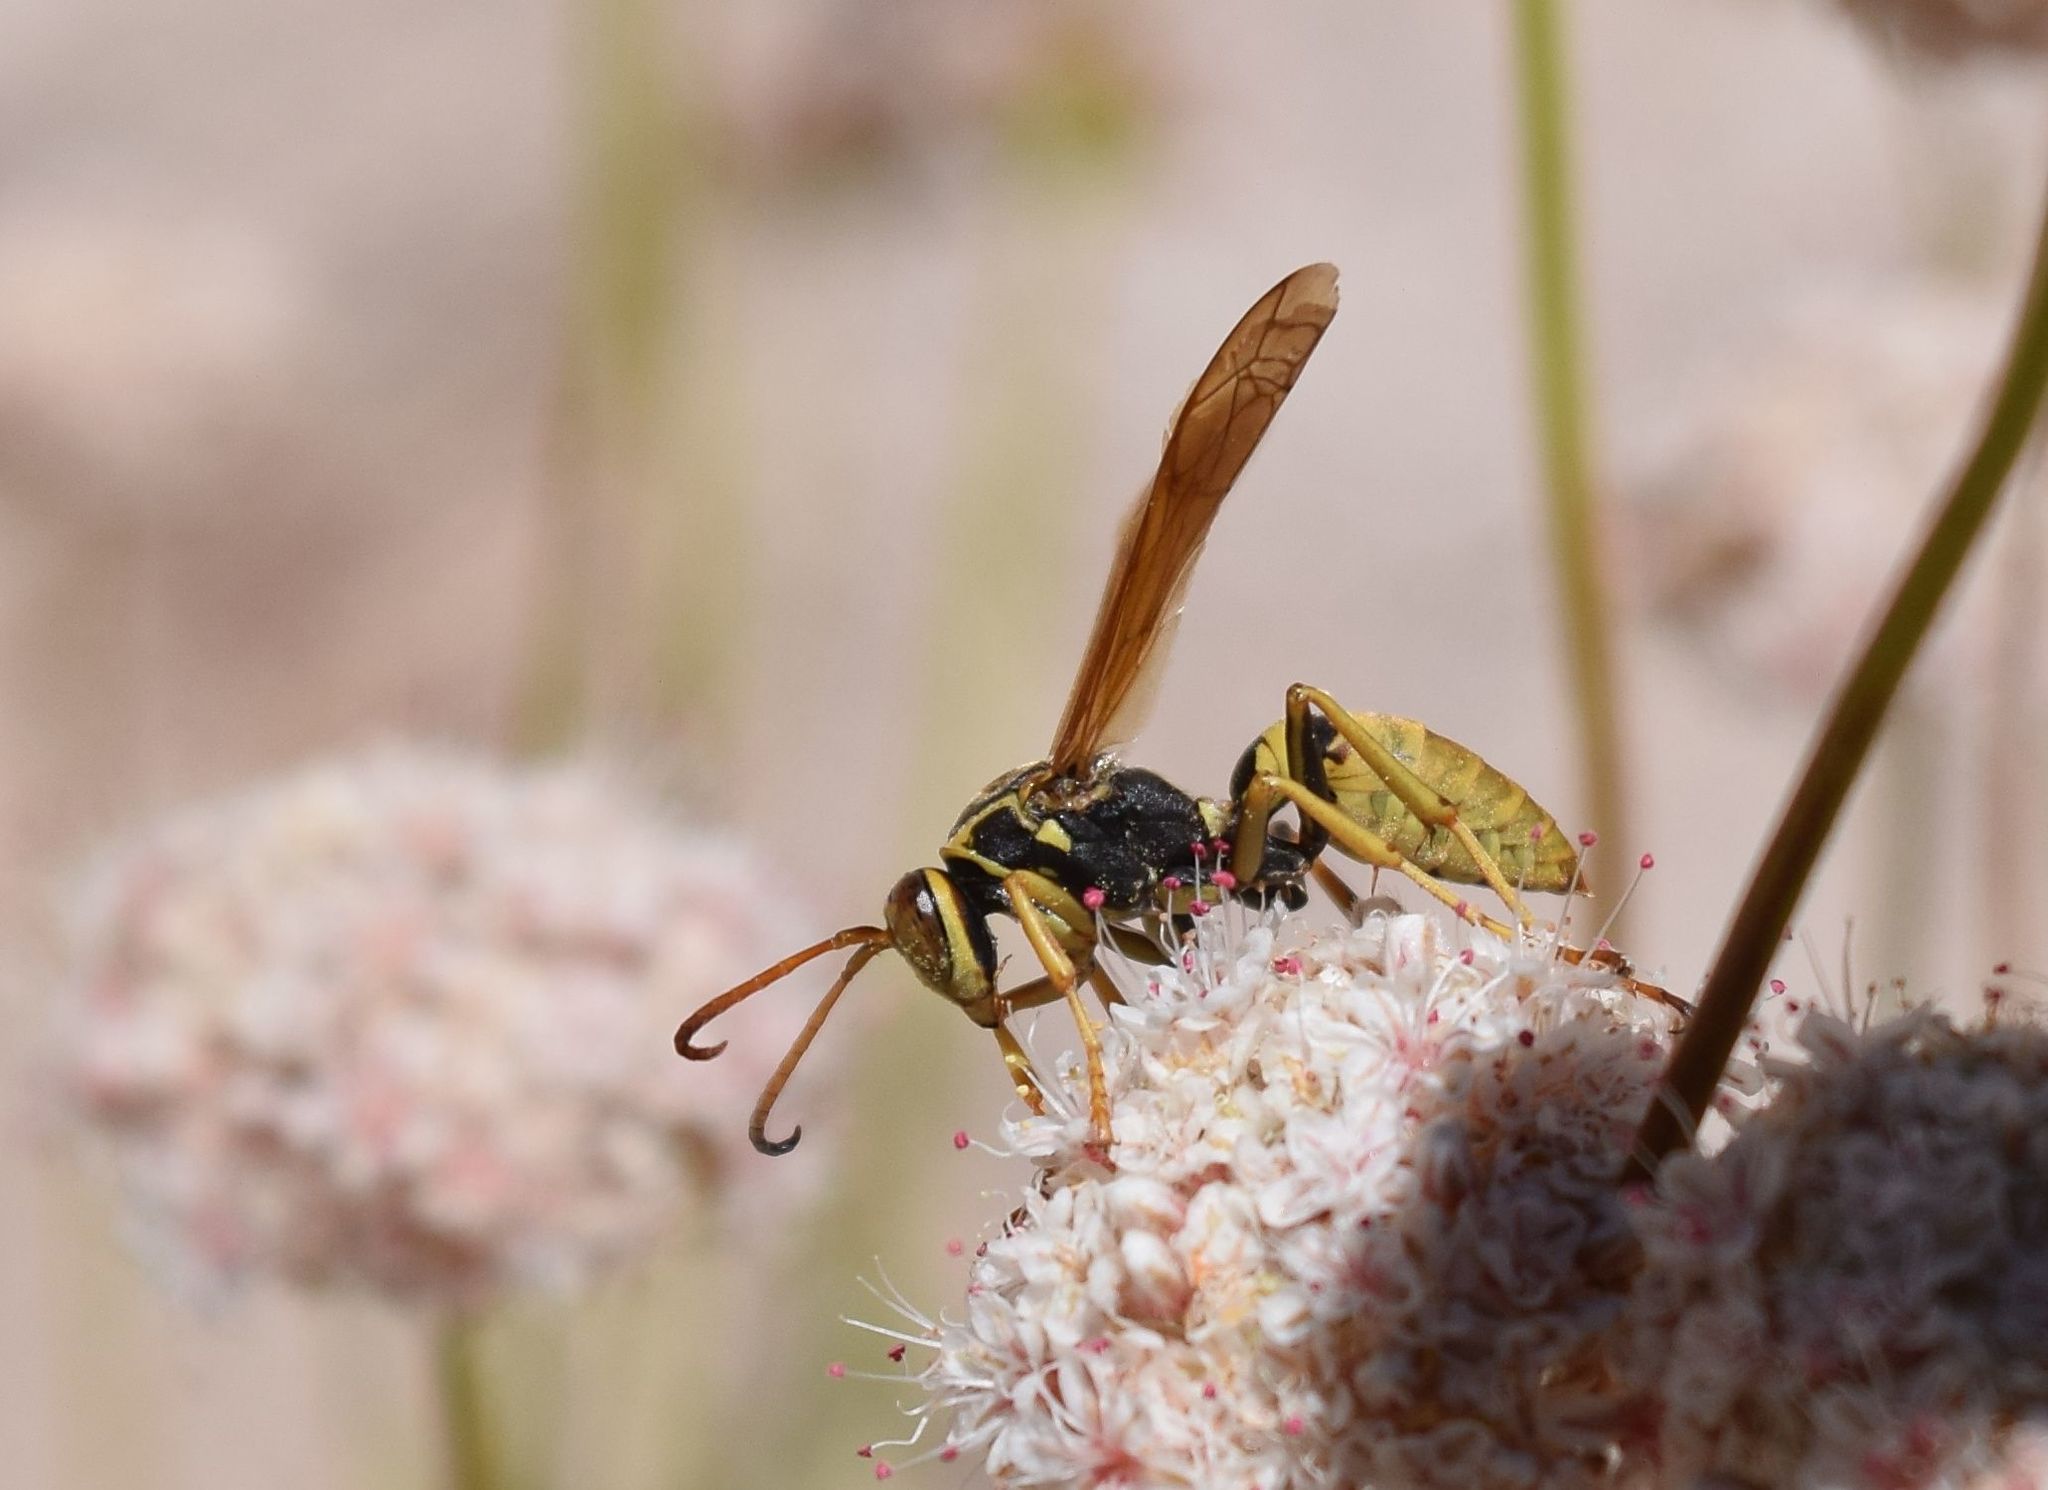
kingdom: Animalia
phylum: Arthropoda
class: Insecta
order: Hymenoptera
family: Eumenidae
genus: Polistes
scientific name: Polistes aurifer
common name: Paper wasp
